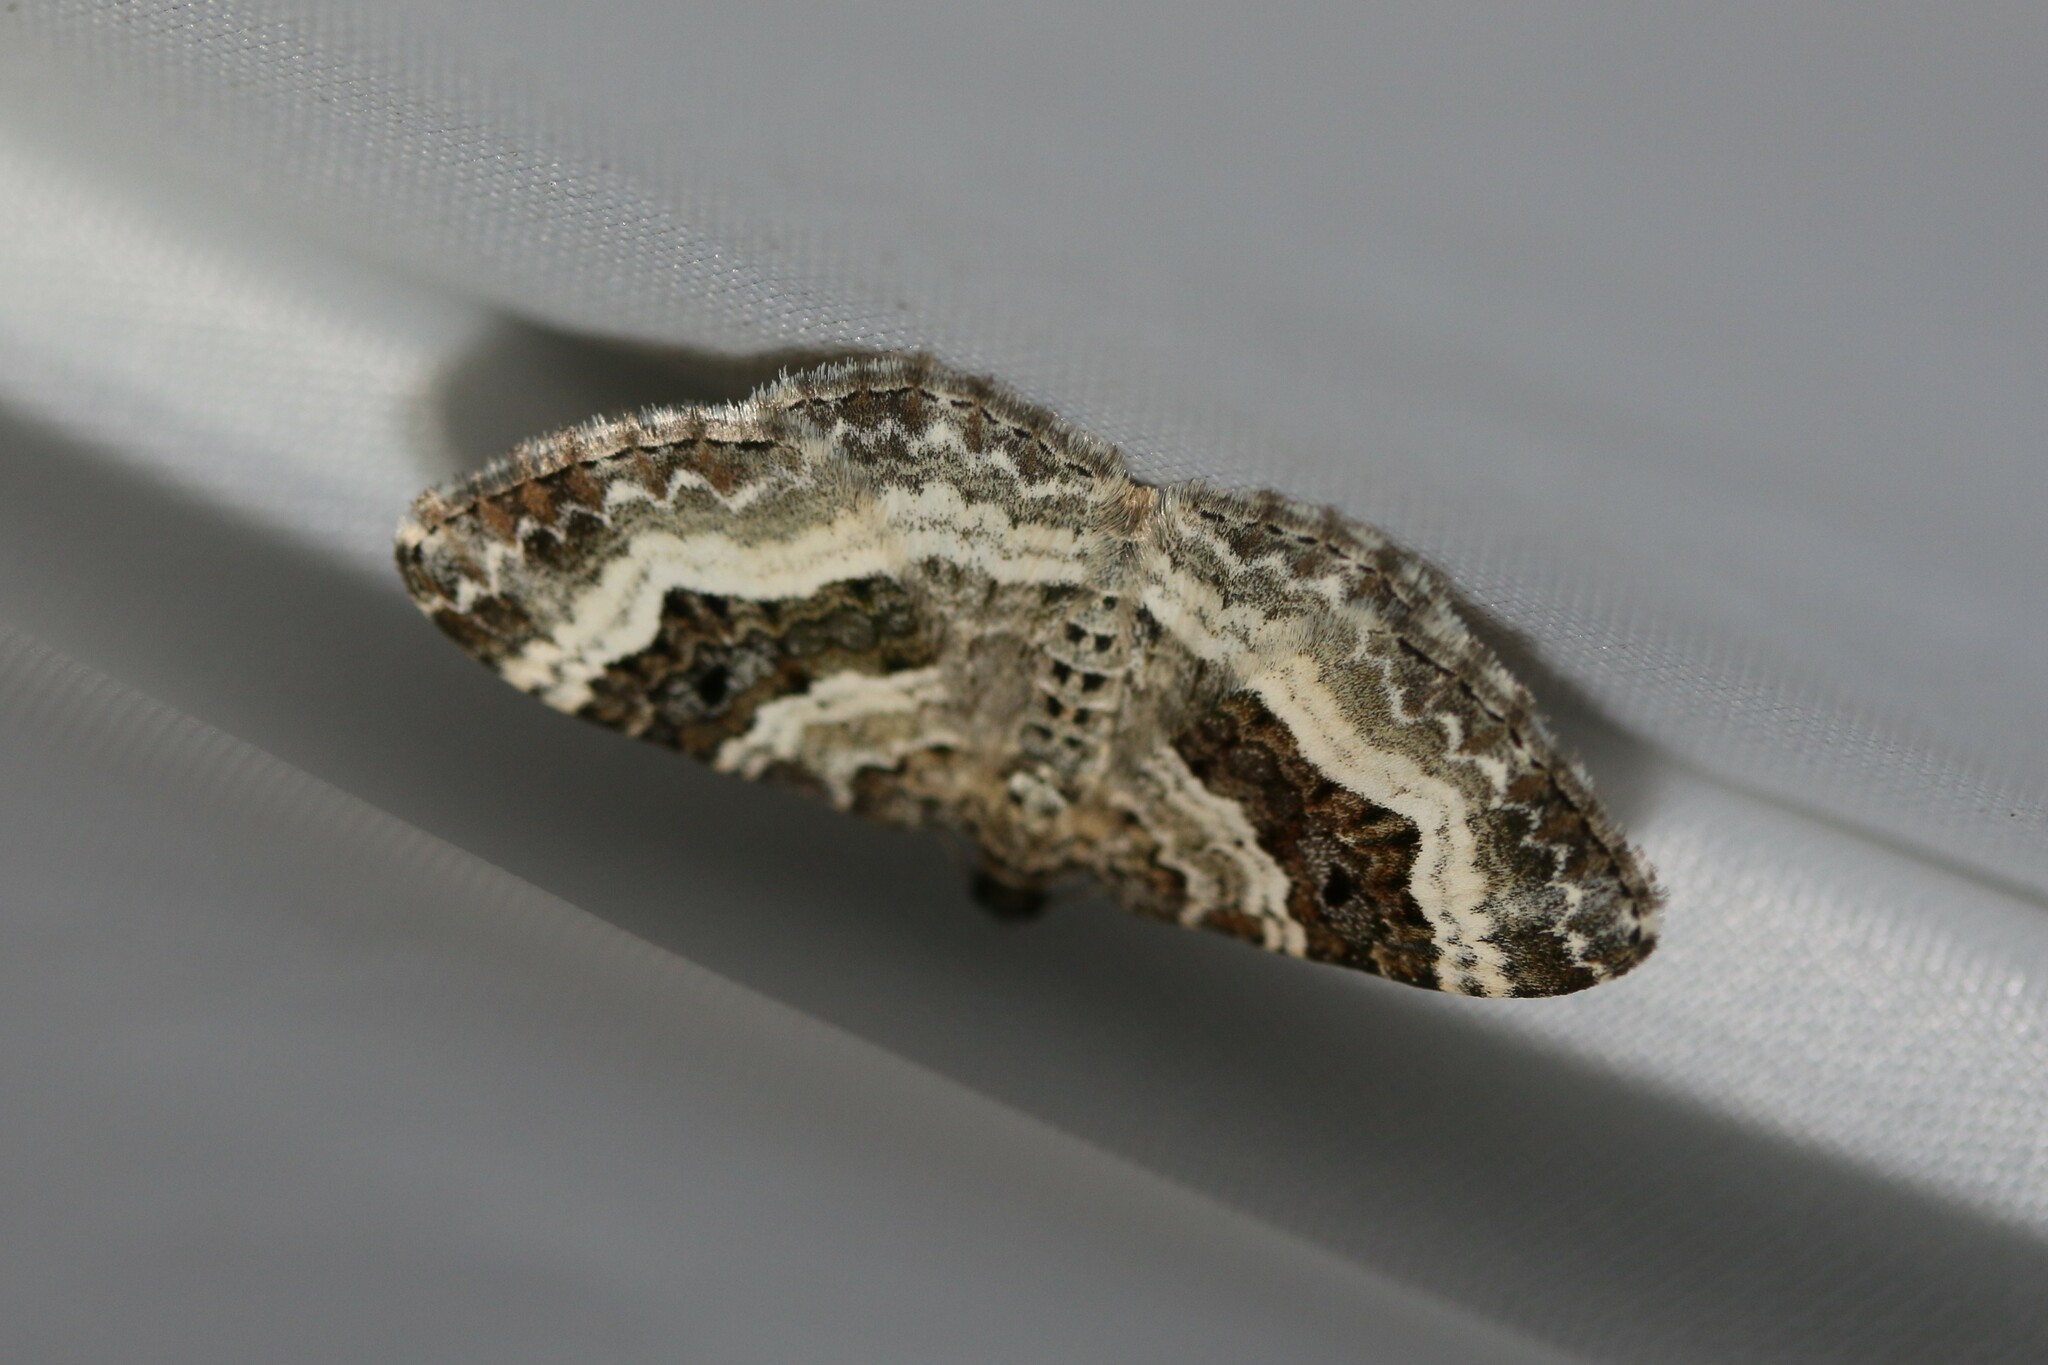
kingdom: Animalia
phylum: Arthropoda
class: Insecta
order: Lepidoptera
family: Geometridae
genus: Epirrhoe
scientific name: Epirrhoe alternata
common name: Common carpet
